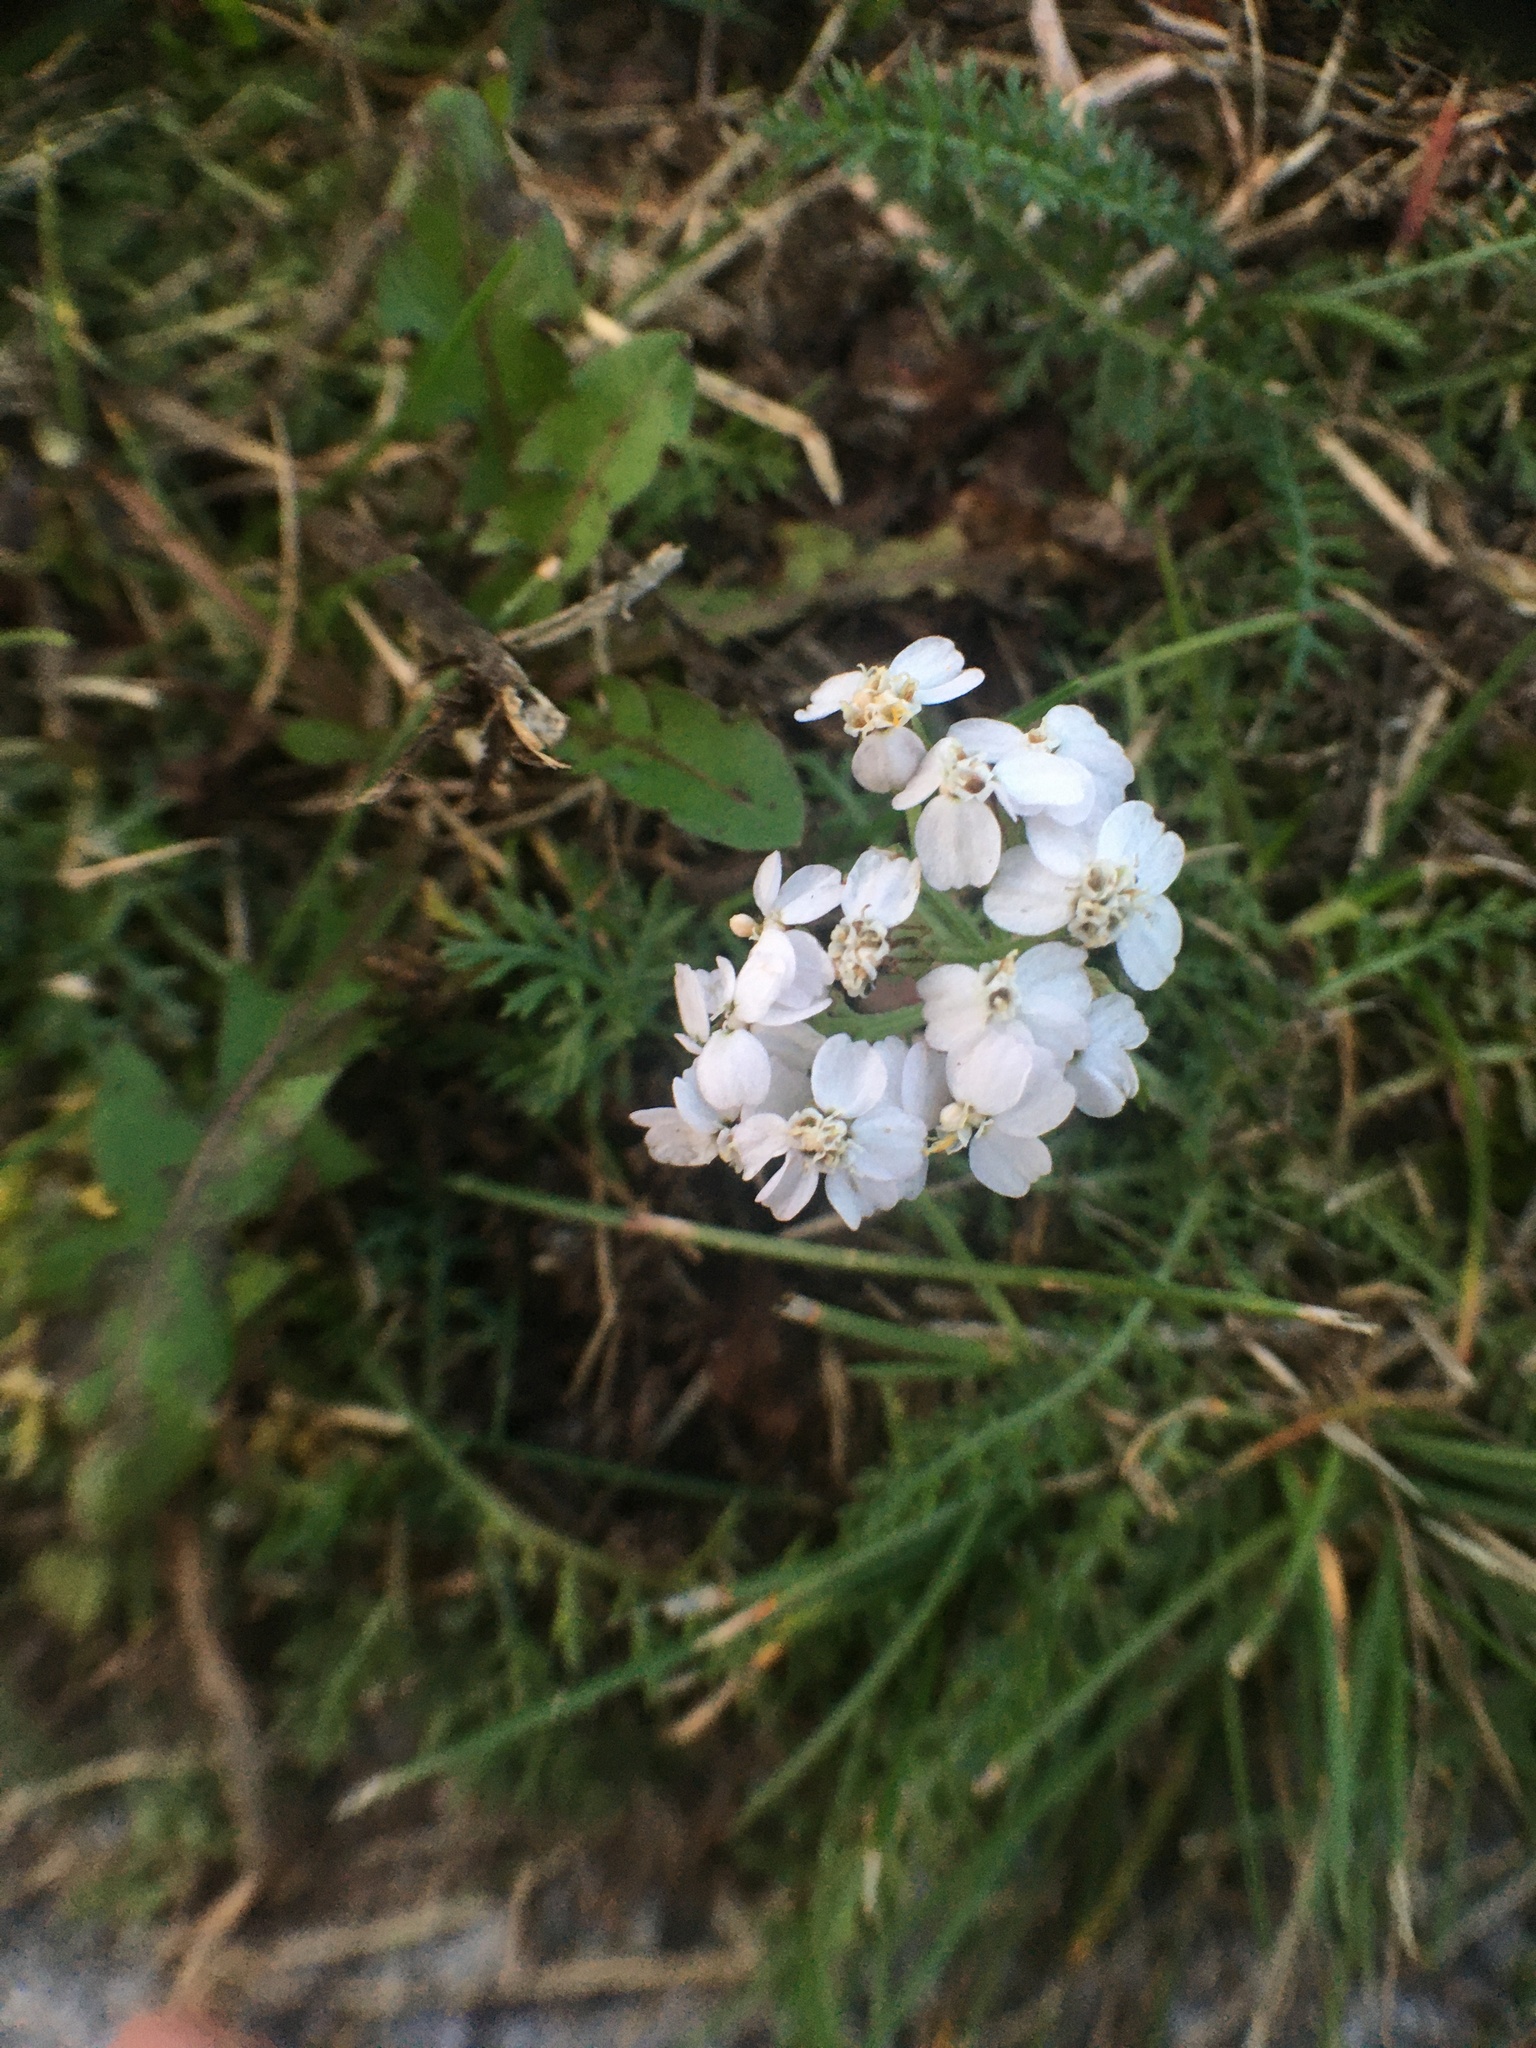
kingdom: Plantae
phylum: Tracheophyta
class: Magnoliopsida
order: Asterales
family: Asteraceae
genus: Achillea
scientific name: Achillea millefolium
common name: Yarrow
